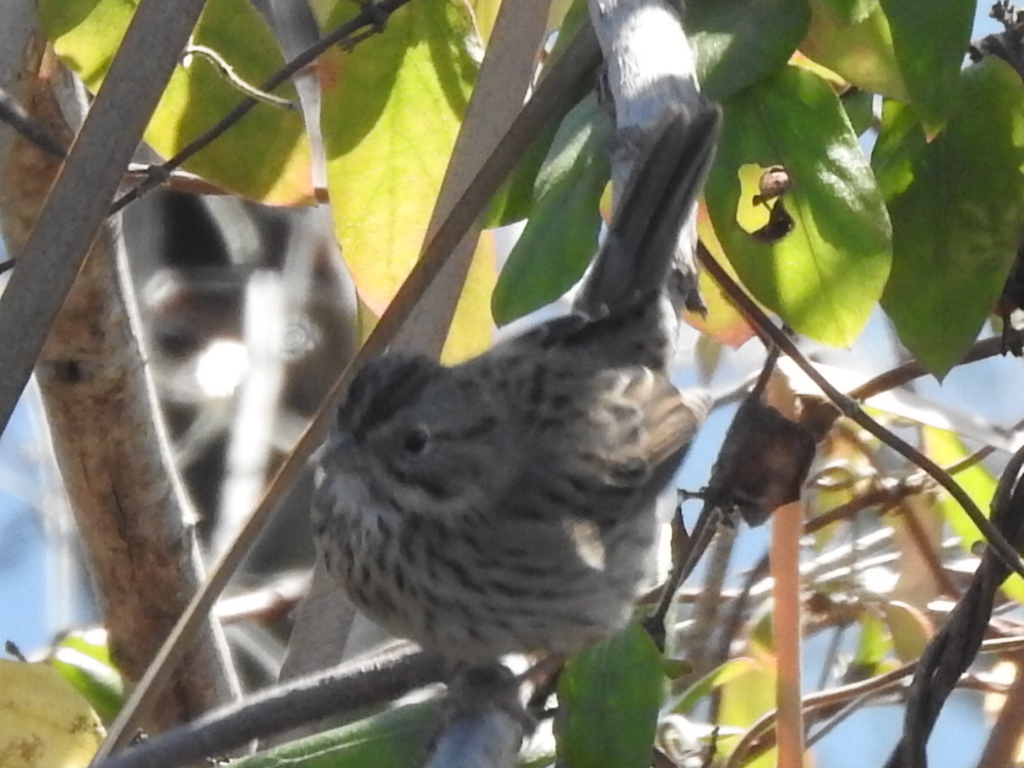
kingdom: Animalia
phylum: Chordata
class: Aves
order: Passeriformes
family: Passerellidae
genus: Melospiza
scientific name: Melospiza lincolnii
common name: Lincoln's sparrow
